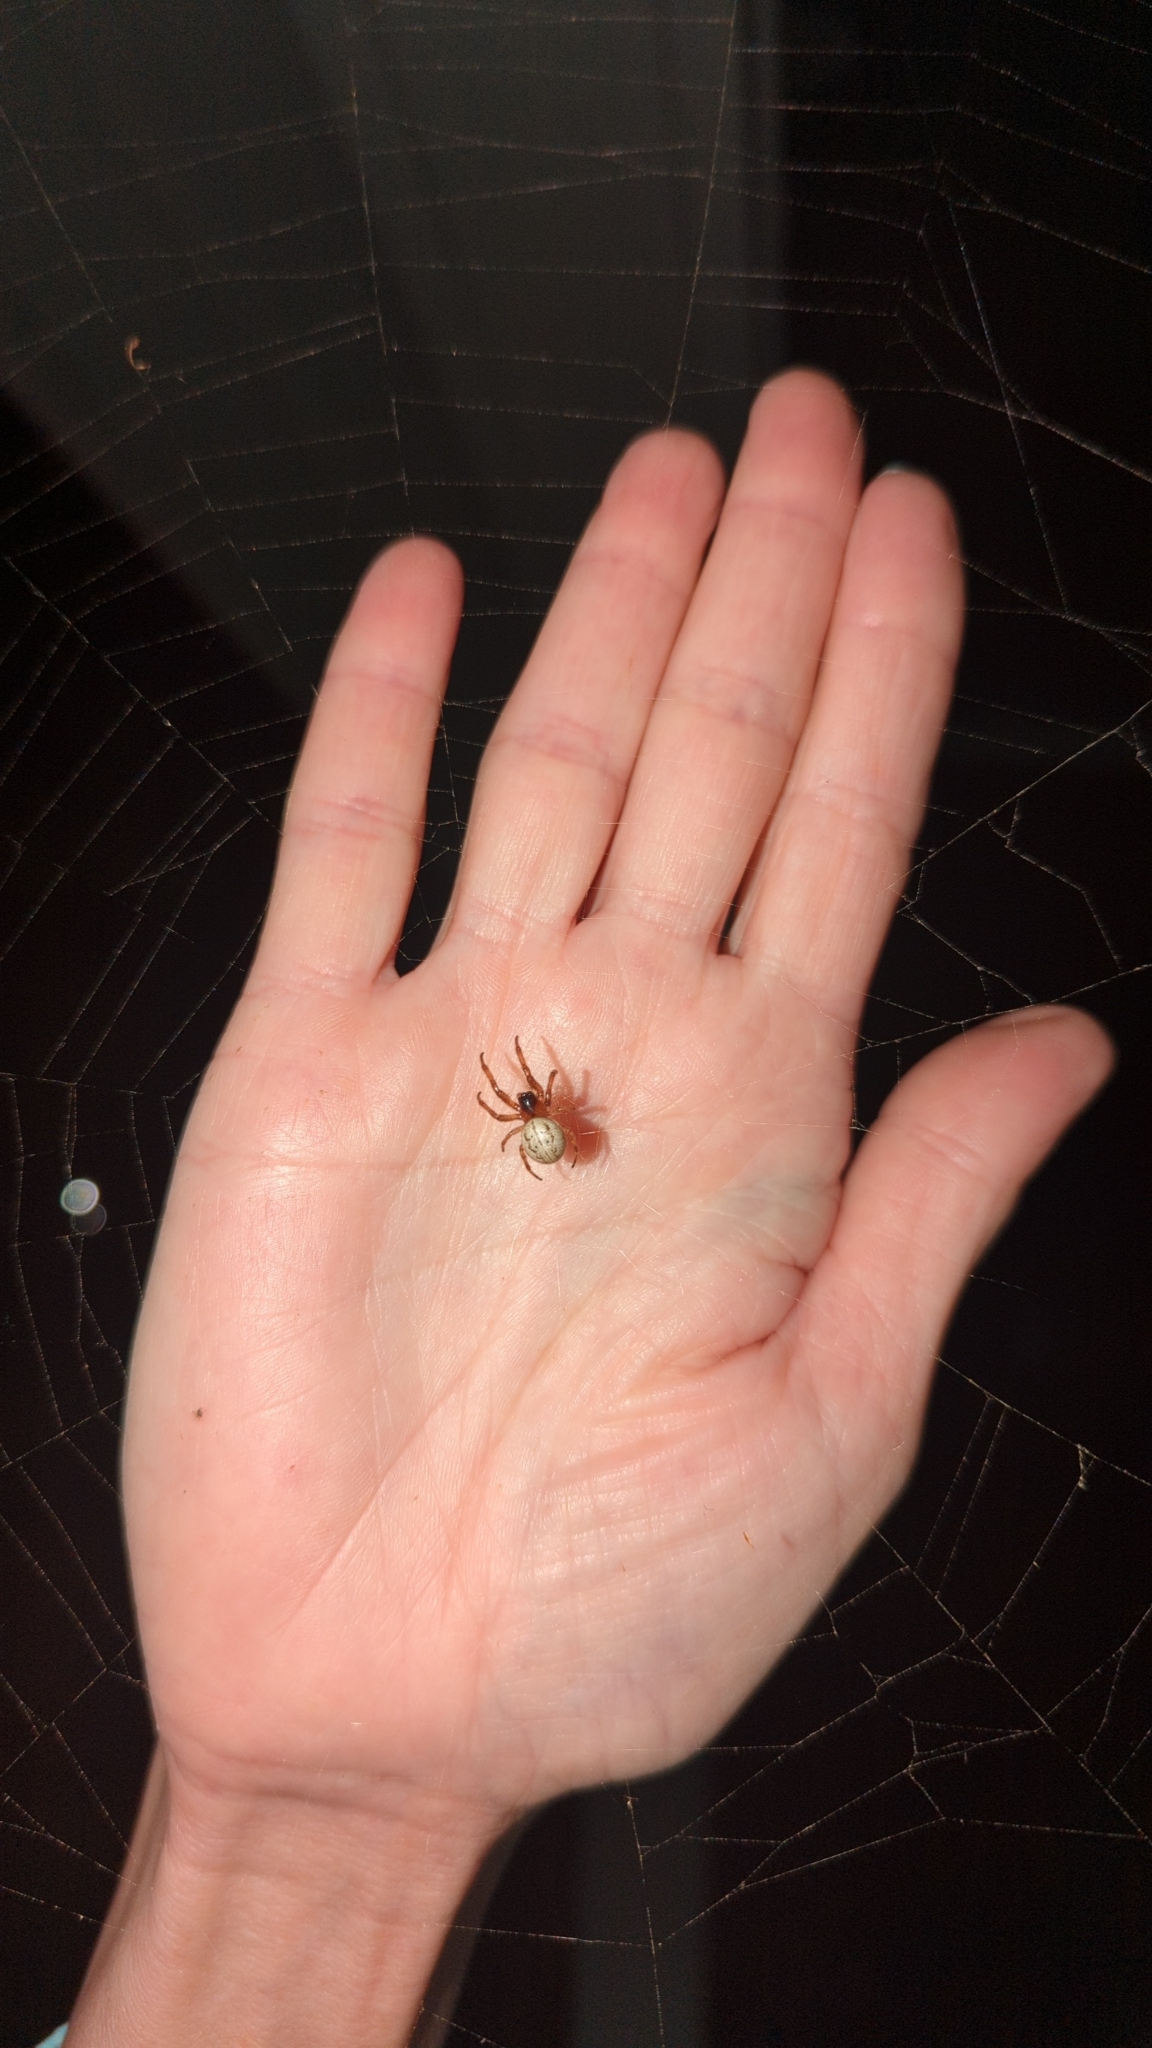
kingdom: Animalia
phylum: Arthropoda
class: Arachnida
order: Araneae
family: Araneidae
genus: Metazygia
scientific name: Metazygia wittfeldae
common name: Orb weavers
